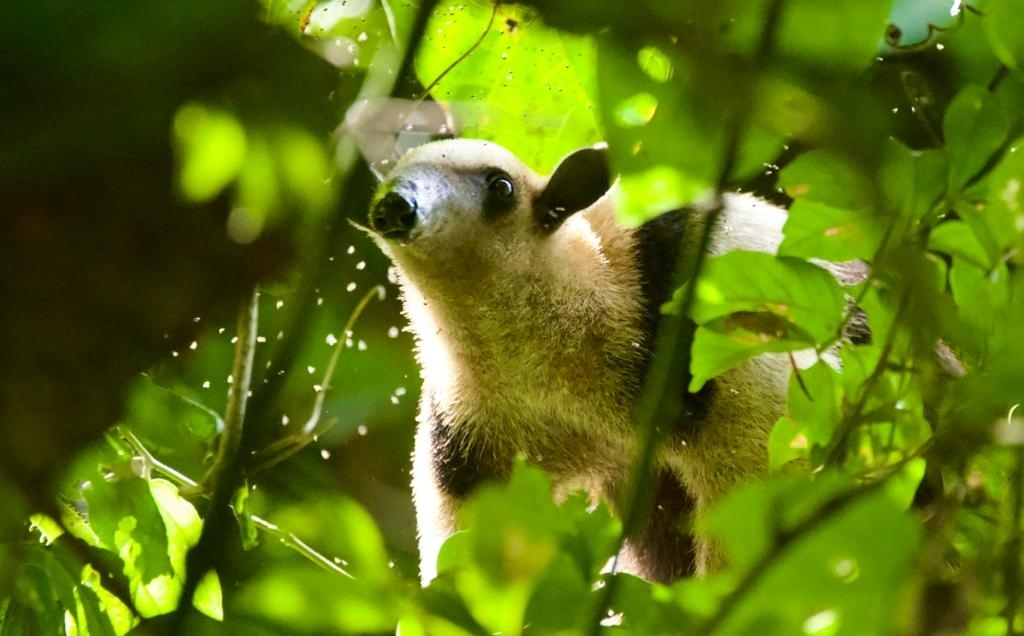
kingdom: Animalia
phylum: Chordata
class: Mammalia
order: Pilosa
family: Myrmecophagidae
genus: Tamandua
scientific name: Tamandua mexicana
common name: Northern tamandua
